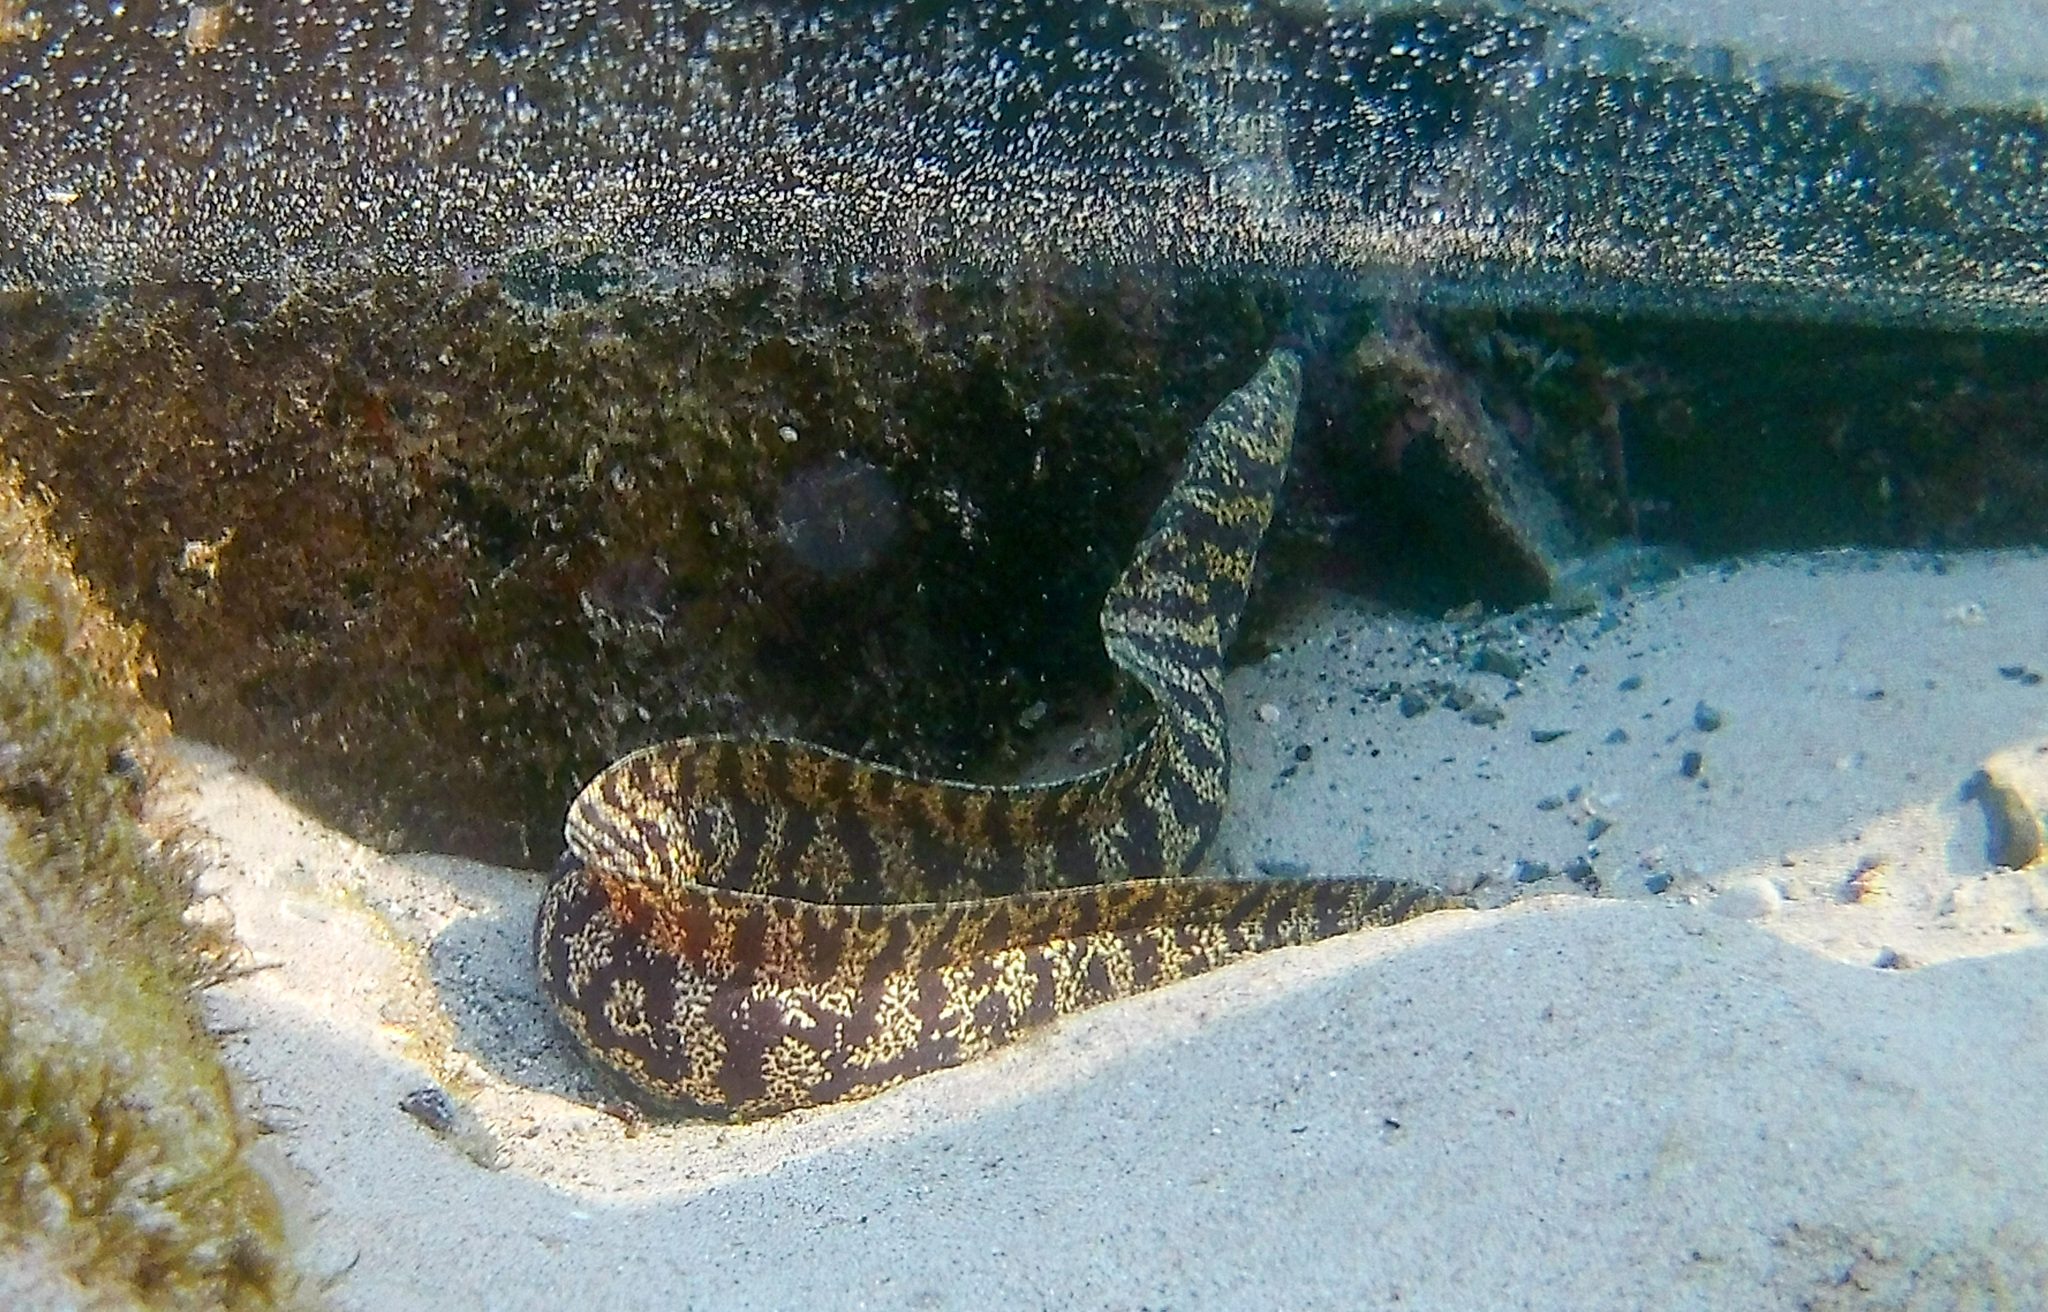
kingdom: Animalia
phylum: Chordata
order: Anguilliformes
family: Muraenidae
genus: Echidna
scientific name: Echidna catenata
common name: Chain moray
